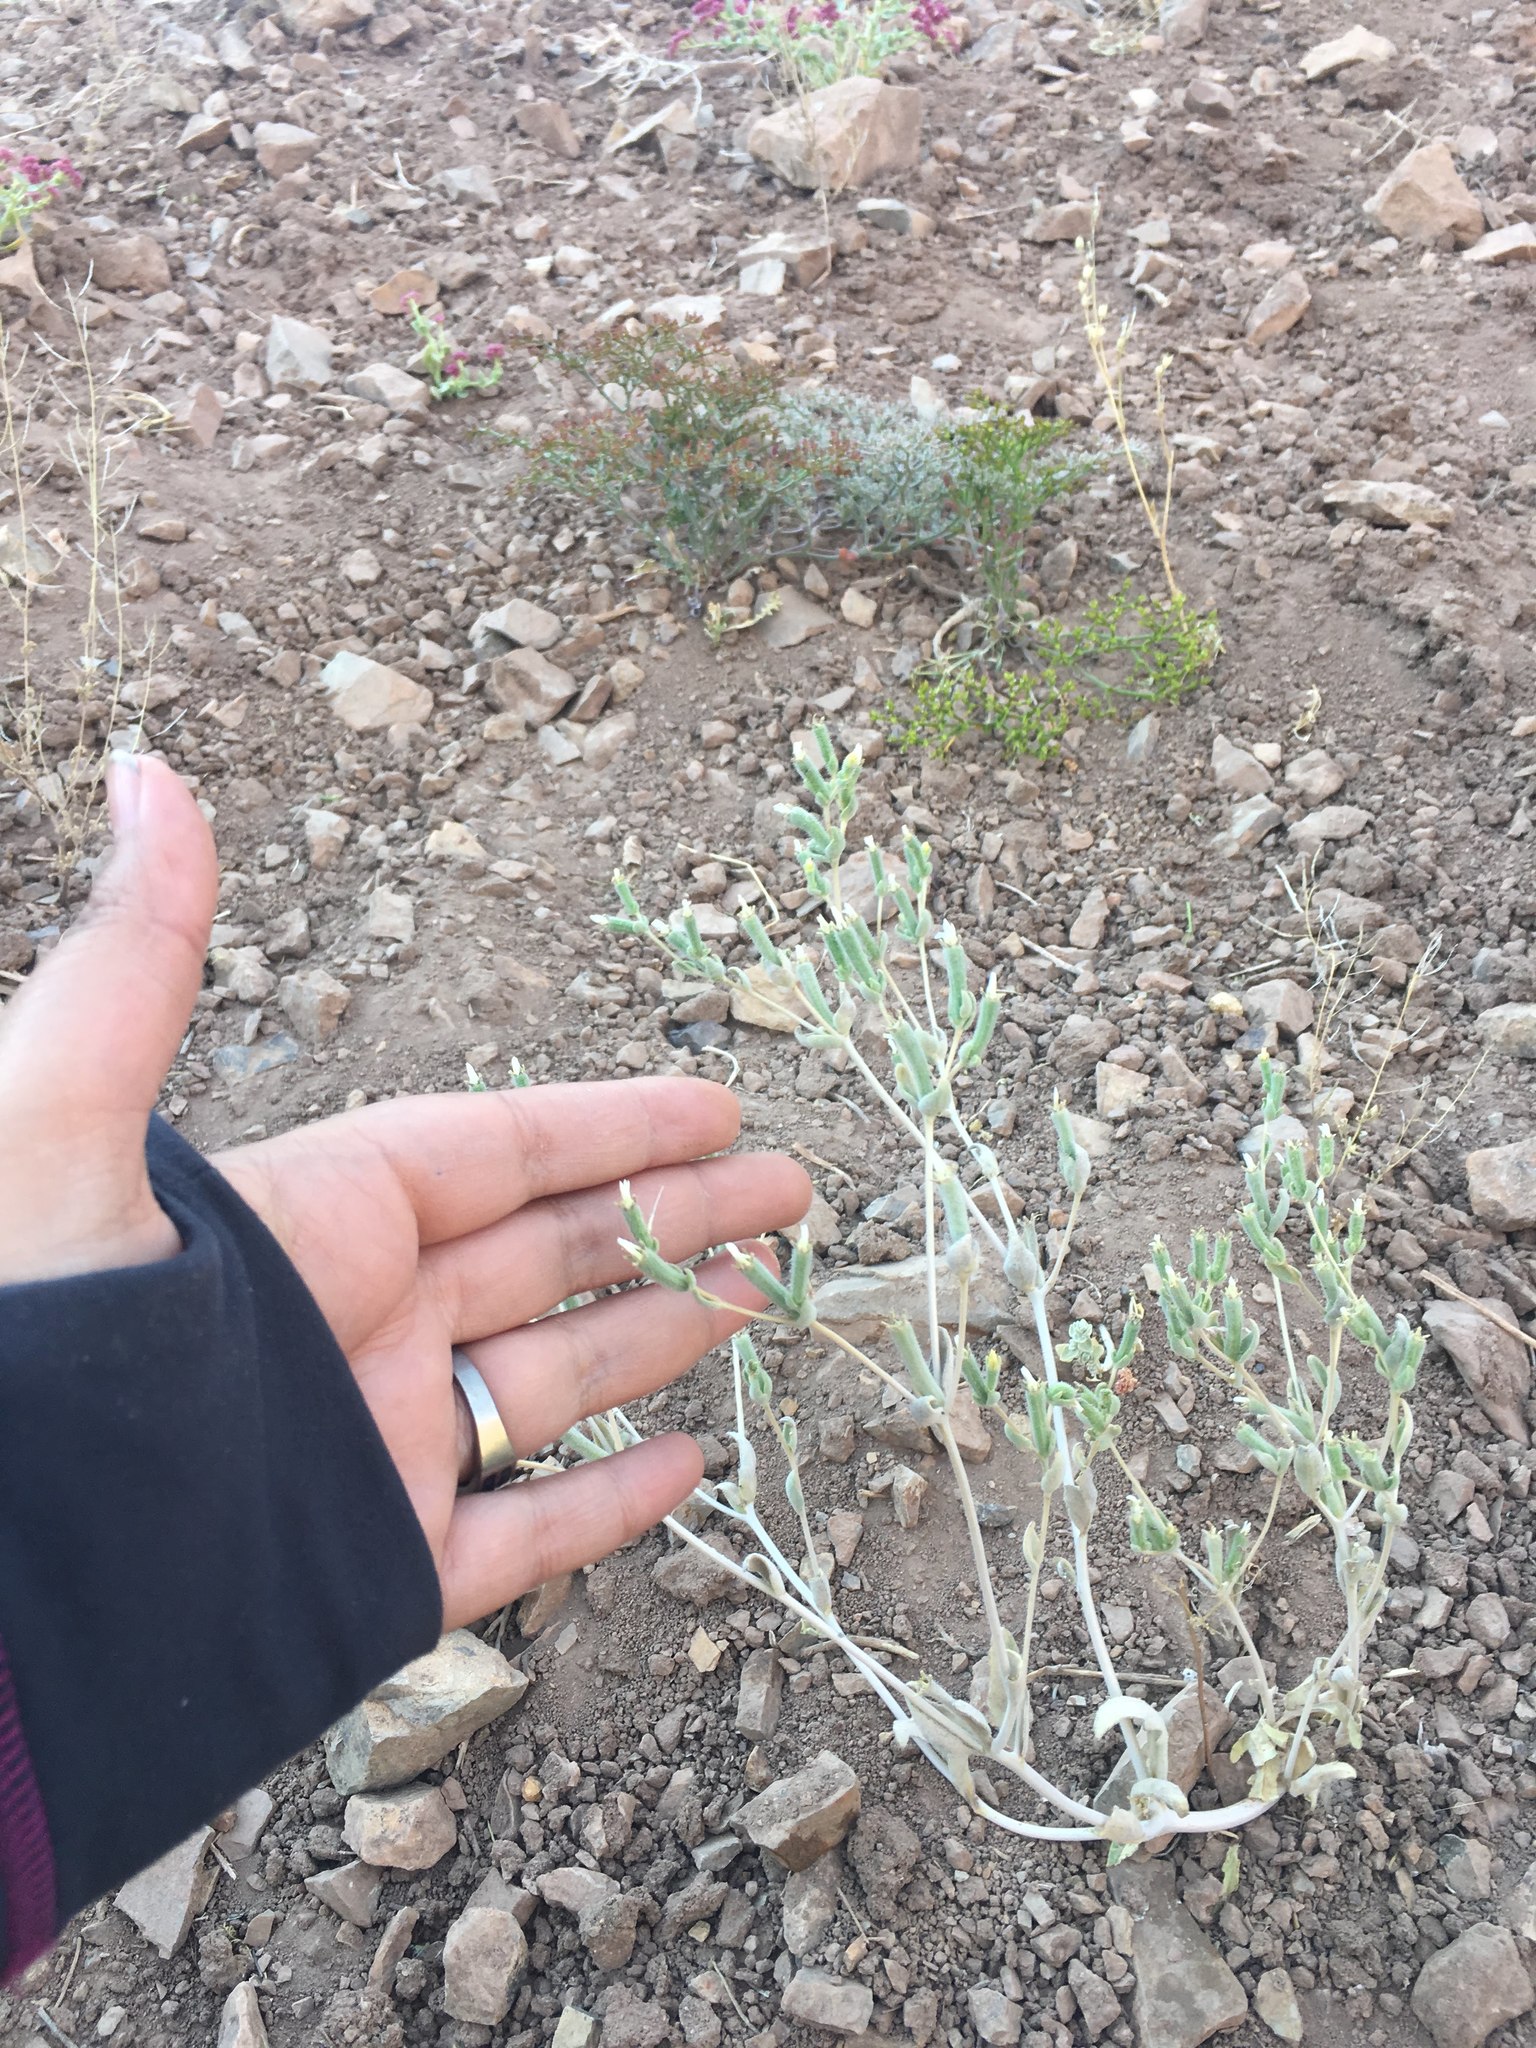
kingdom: Plantae
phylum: Tracheophyta
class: Magnoliopsida
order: Cornales
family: Loasaceae
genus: Mentzelia
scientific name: Mentzelia solieri
